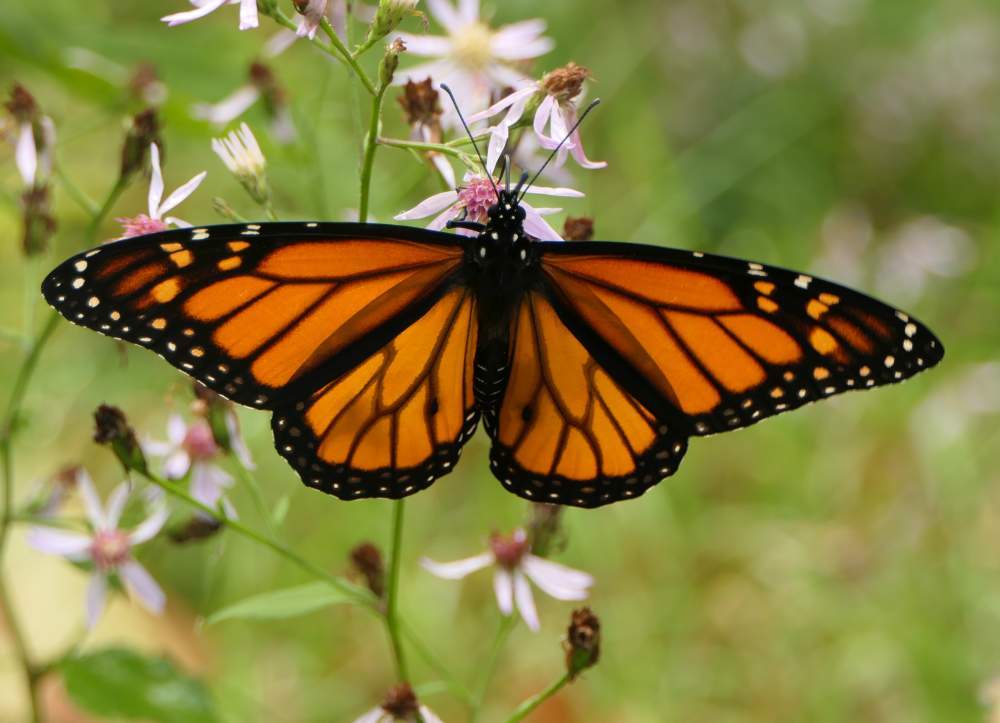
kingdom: Animalia
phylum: Arthropoda
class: Insecta
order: Lepidoptera
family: Nymphalidae
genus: Danaus
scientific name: Danaus plexippus
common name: Monarch
